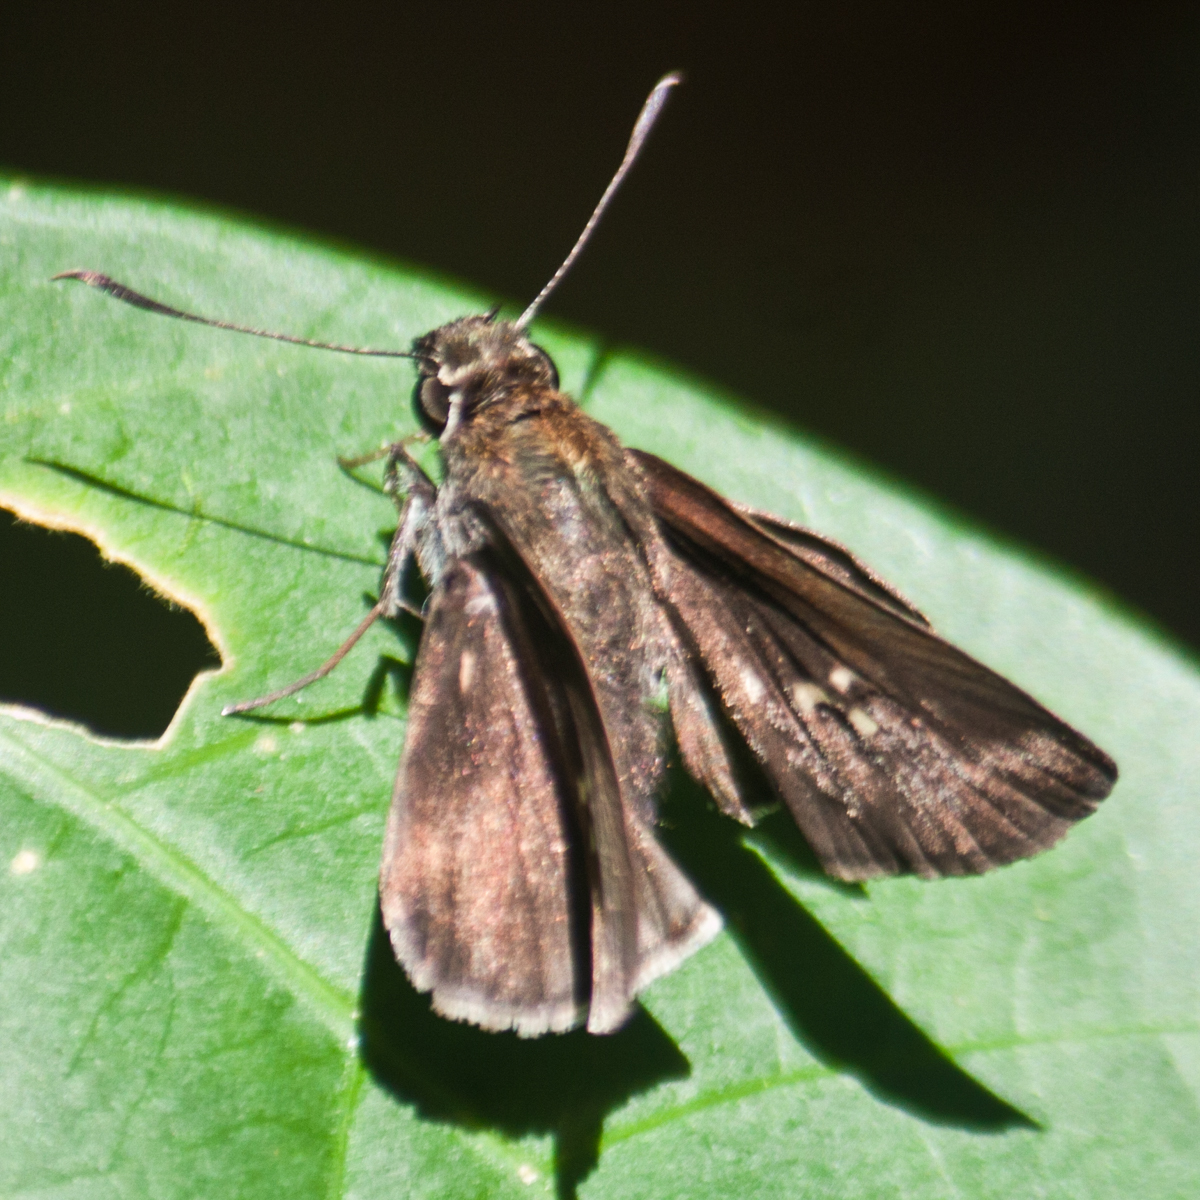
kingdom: Animalia
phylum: Arthropoda
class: Insecta
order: Lepidoptera
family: Hesperiidae
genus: Suastus
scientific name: Suastus minuta
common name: Small palm bob
